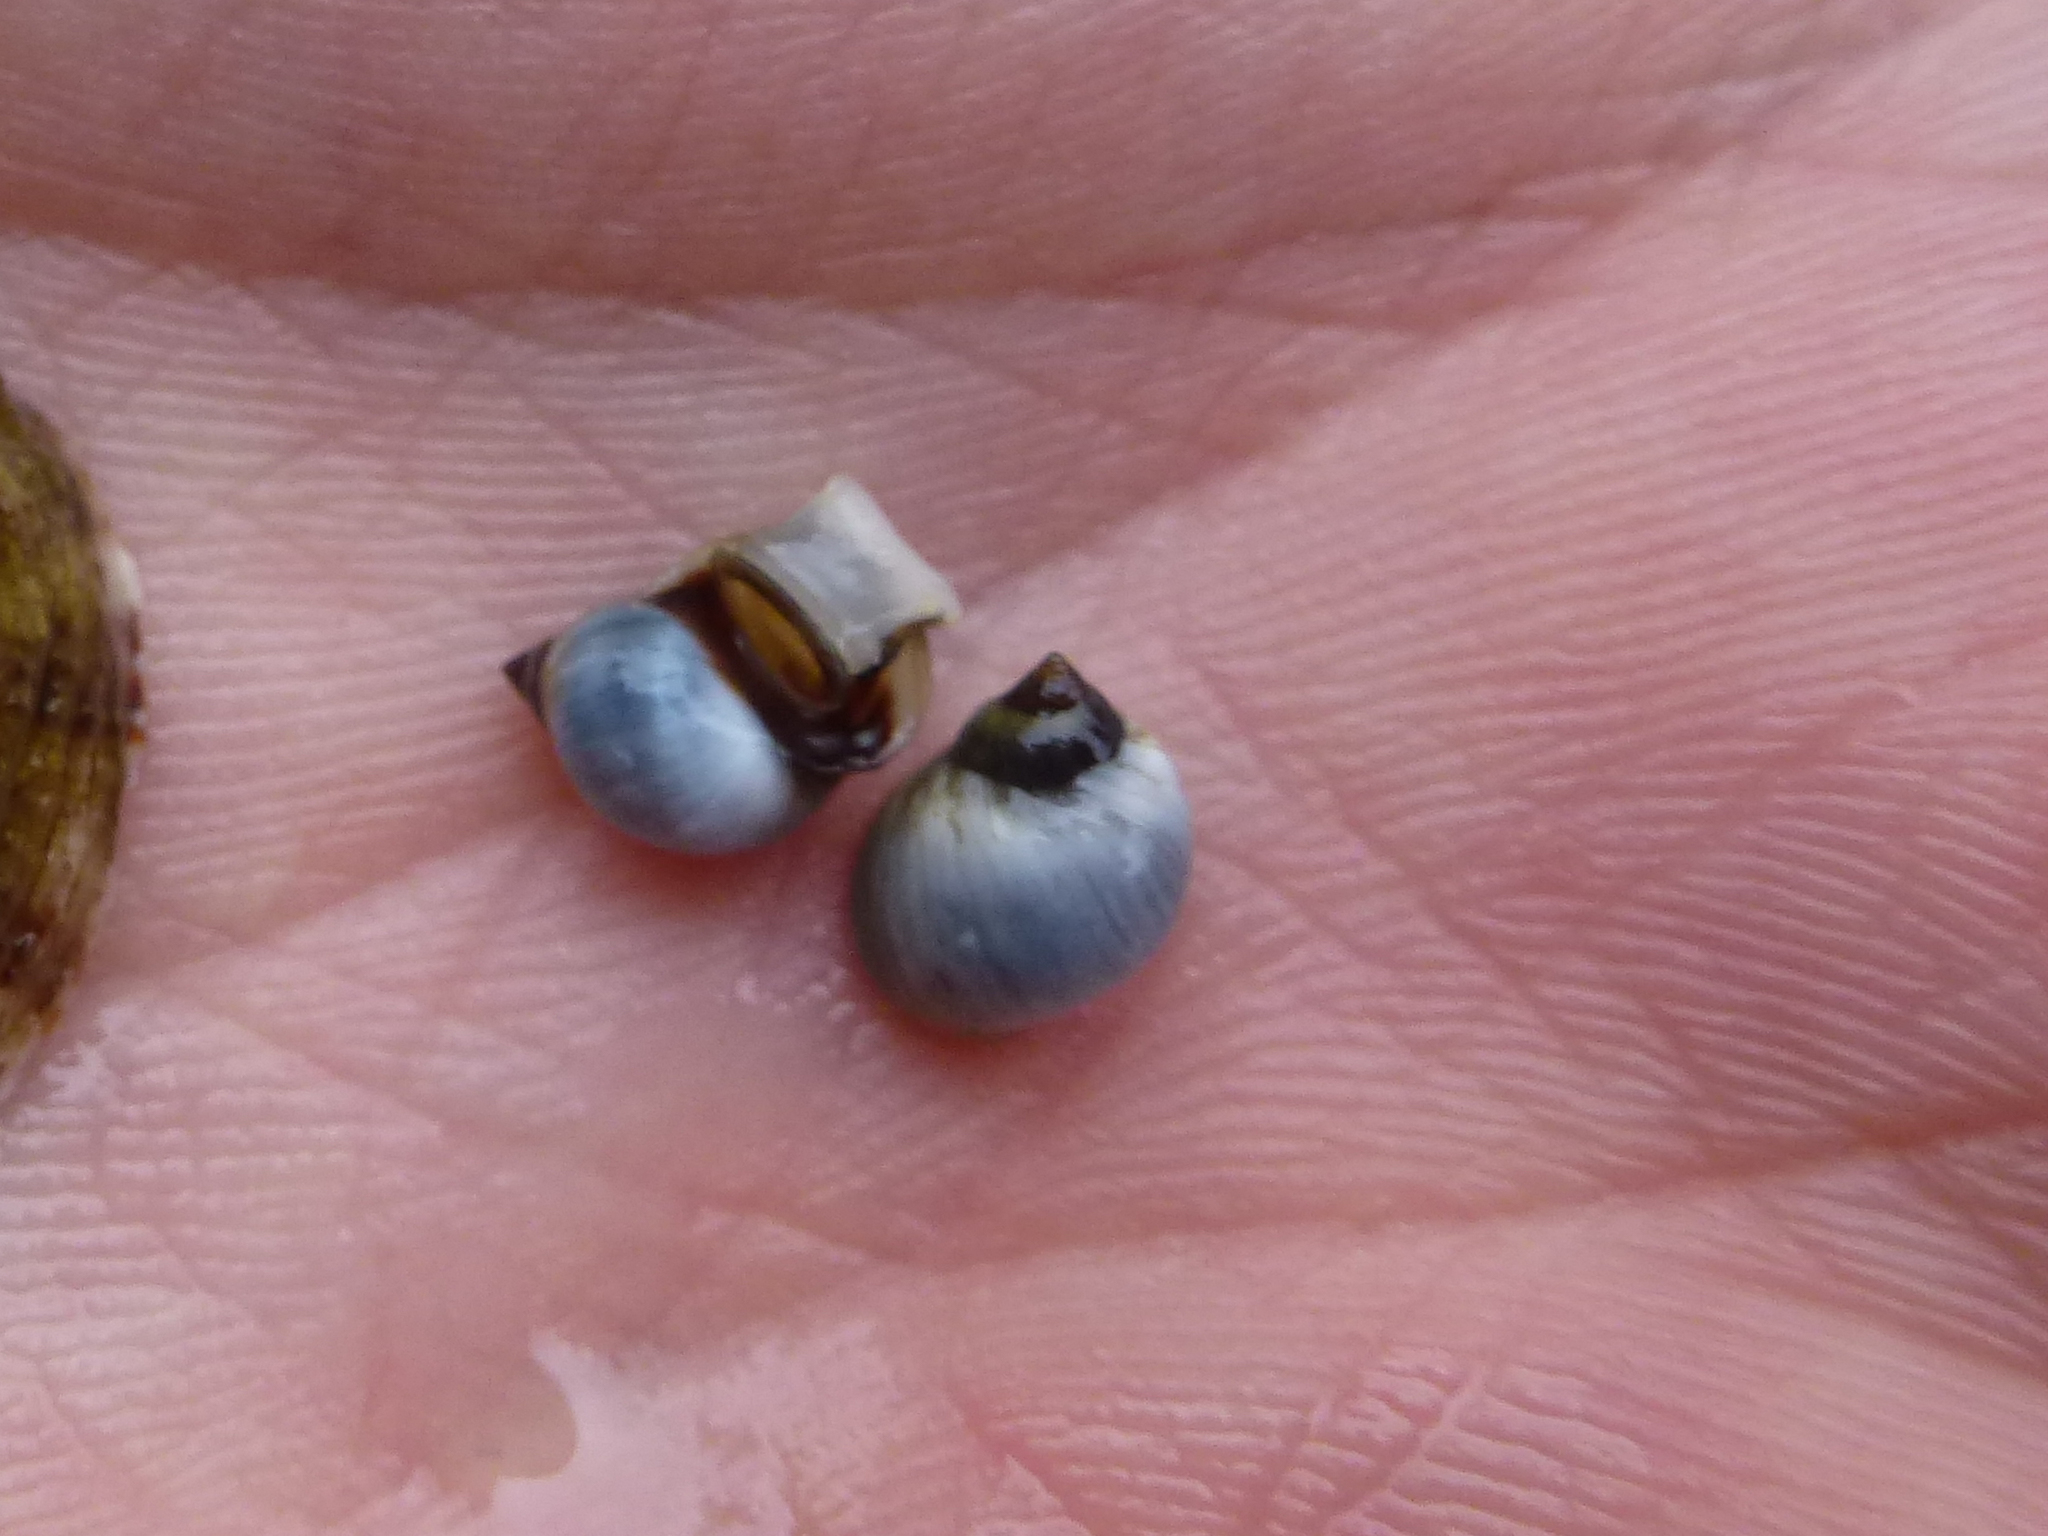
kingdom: Animalia
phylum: Mollusca
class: Gastropoda
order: Littorinimorpha
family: Littorinidae
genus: Melarhaphe
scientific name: Melarhaphe neritoides
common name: Small periwinkle
